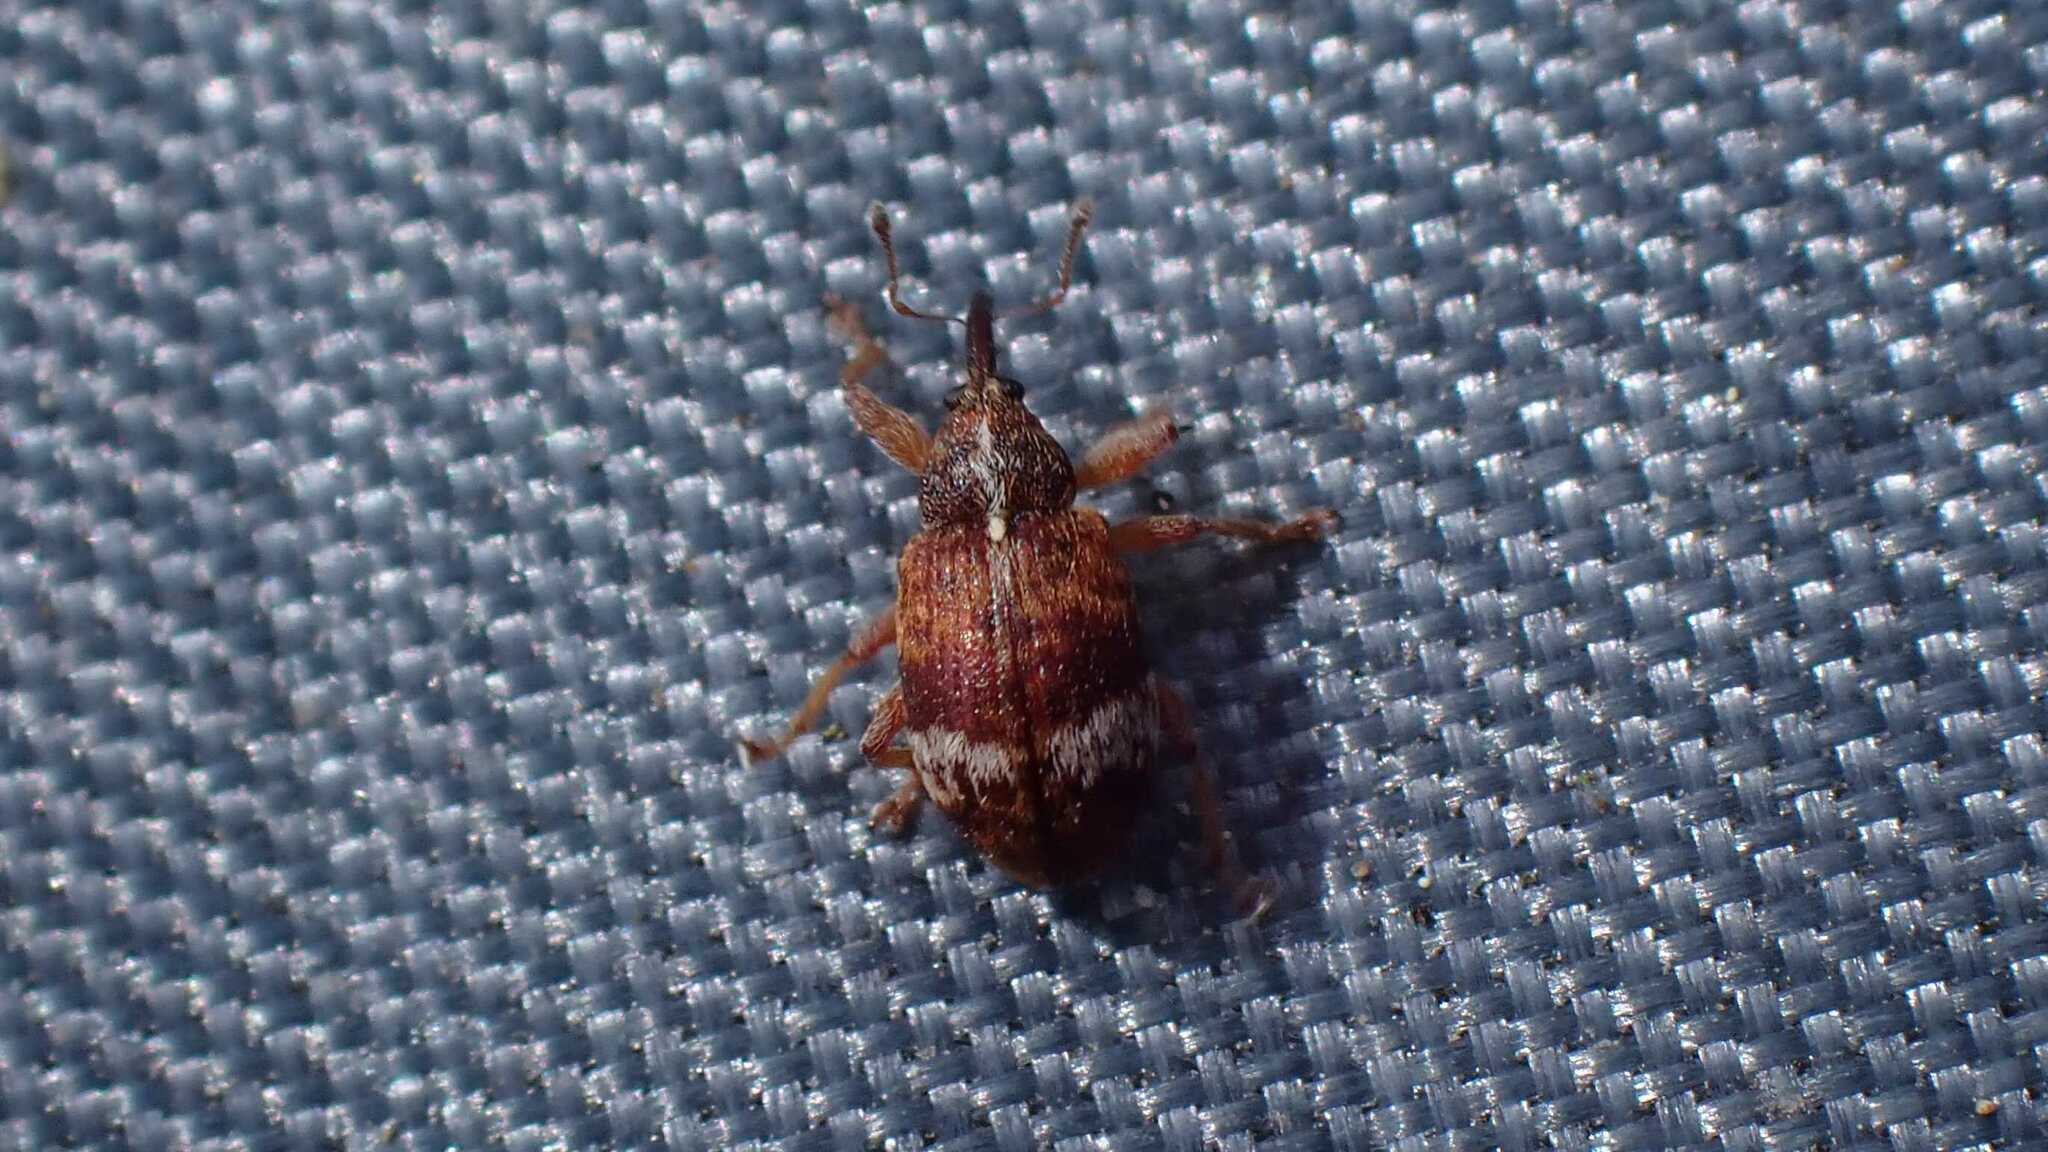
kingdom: Animalia
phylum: Arthropoda
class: Insecta
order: Coleoptera
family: Curculionidae
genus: Anthonomus
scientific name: Anthonomus pedicularius
